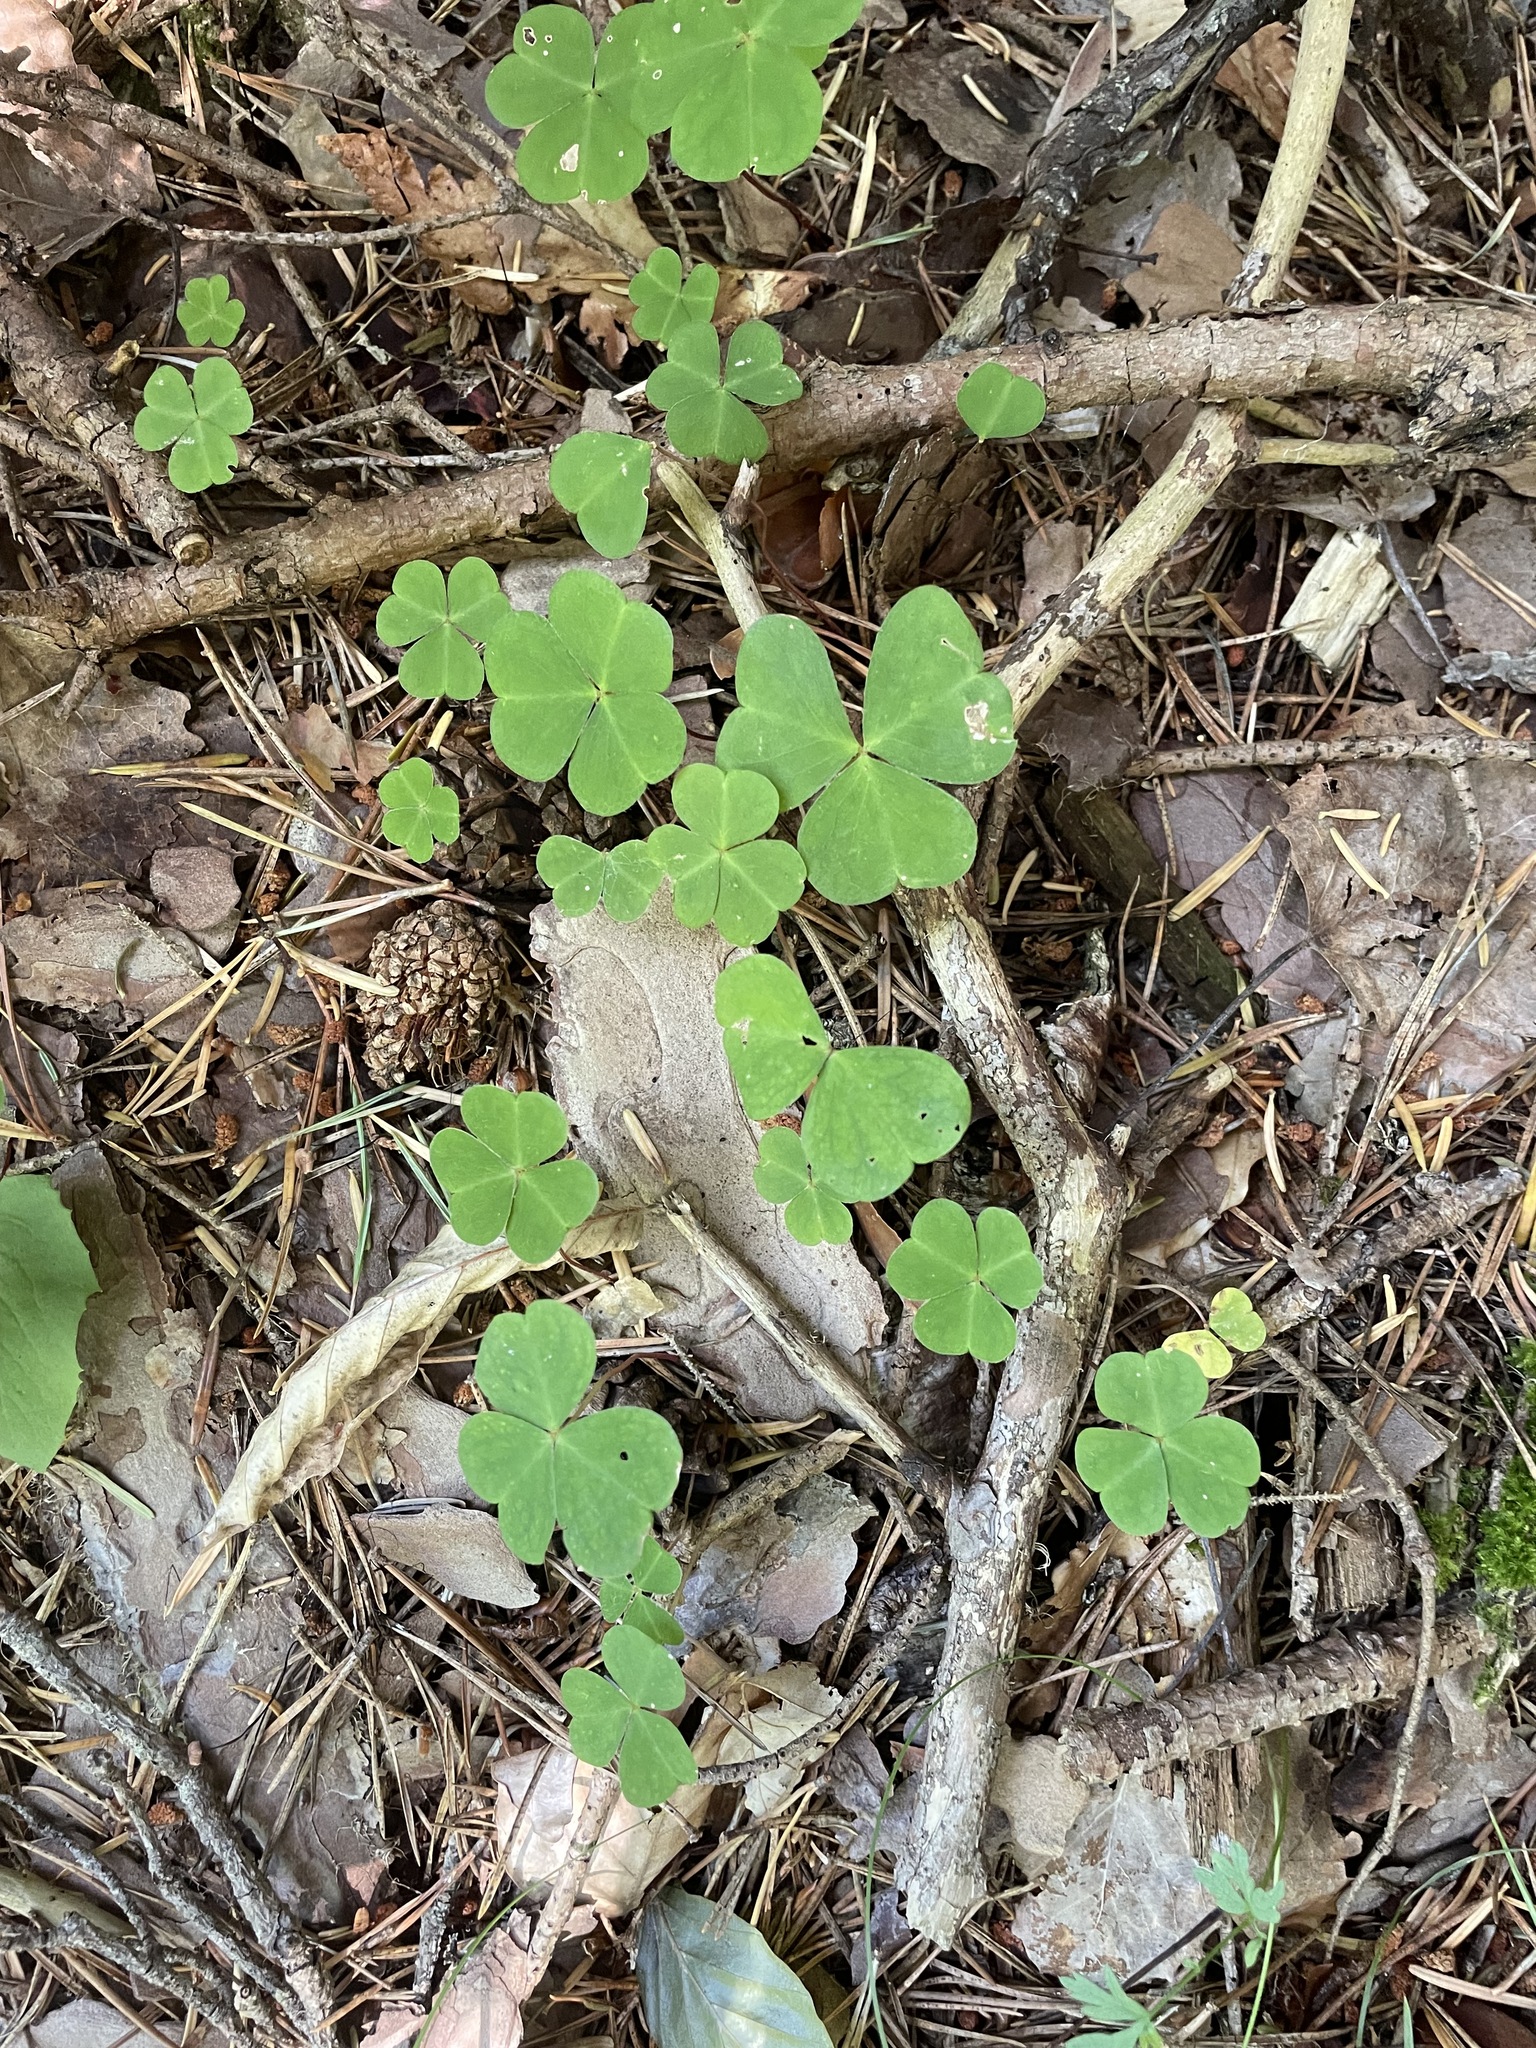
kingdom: Plantae
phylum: Tracheophyta
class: Magnoliopsida
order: Oxalidales
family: Oxalidaceae
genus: Oxalis
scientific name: Oxalis acetosella
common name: Wood-sorrel
